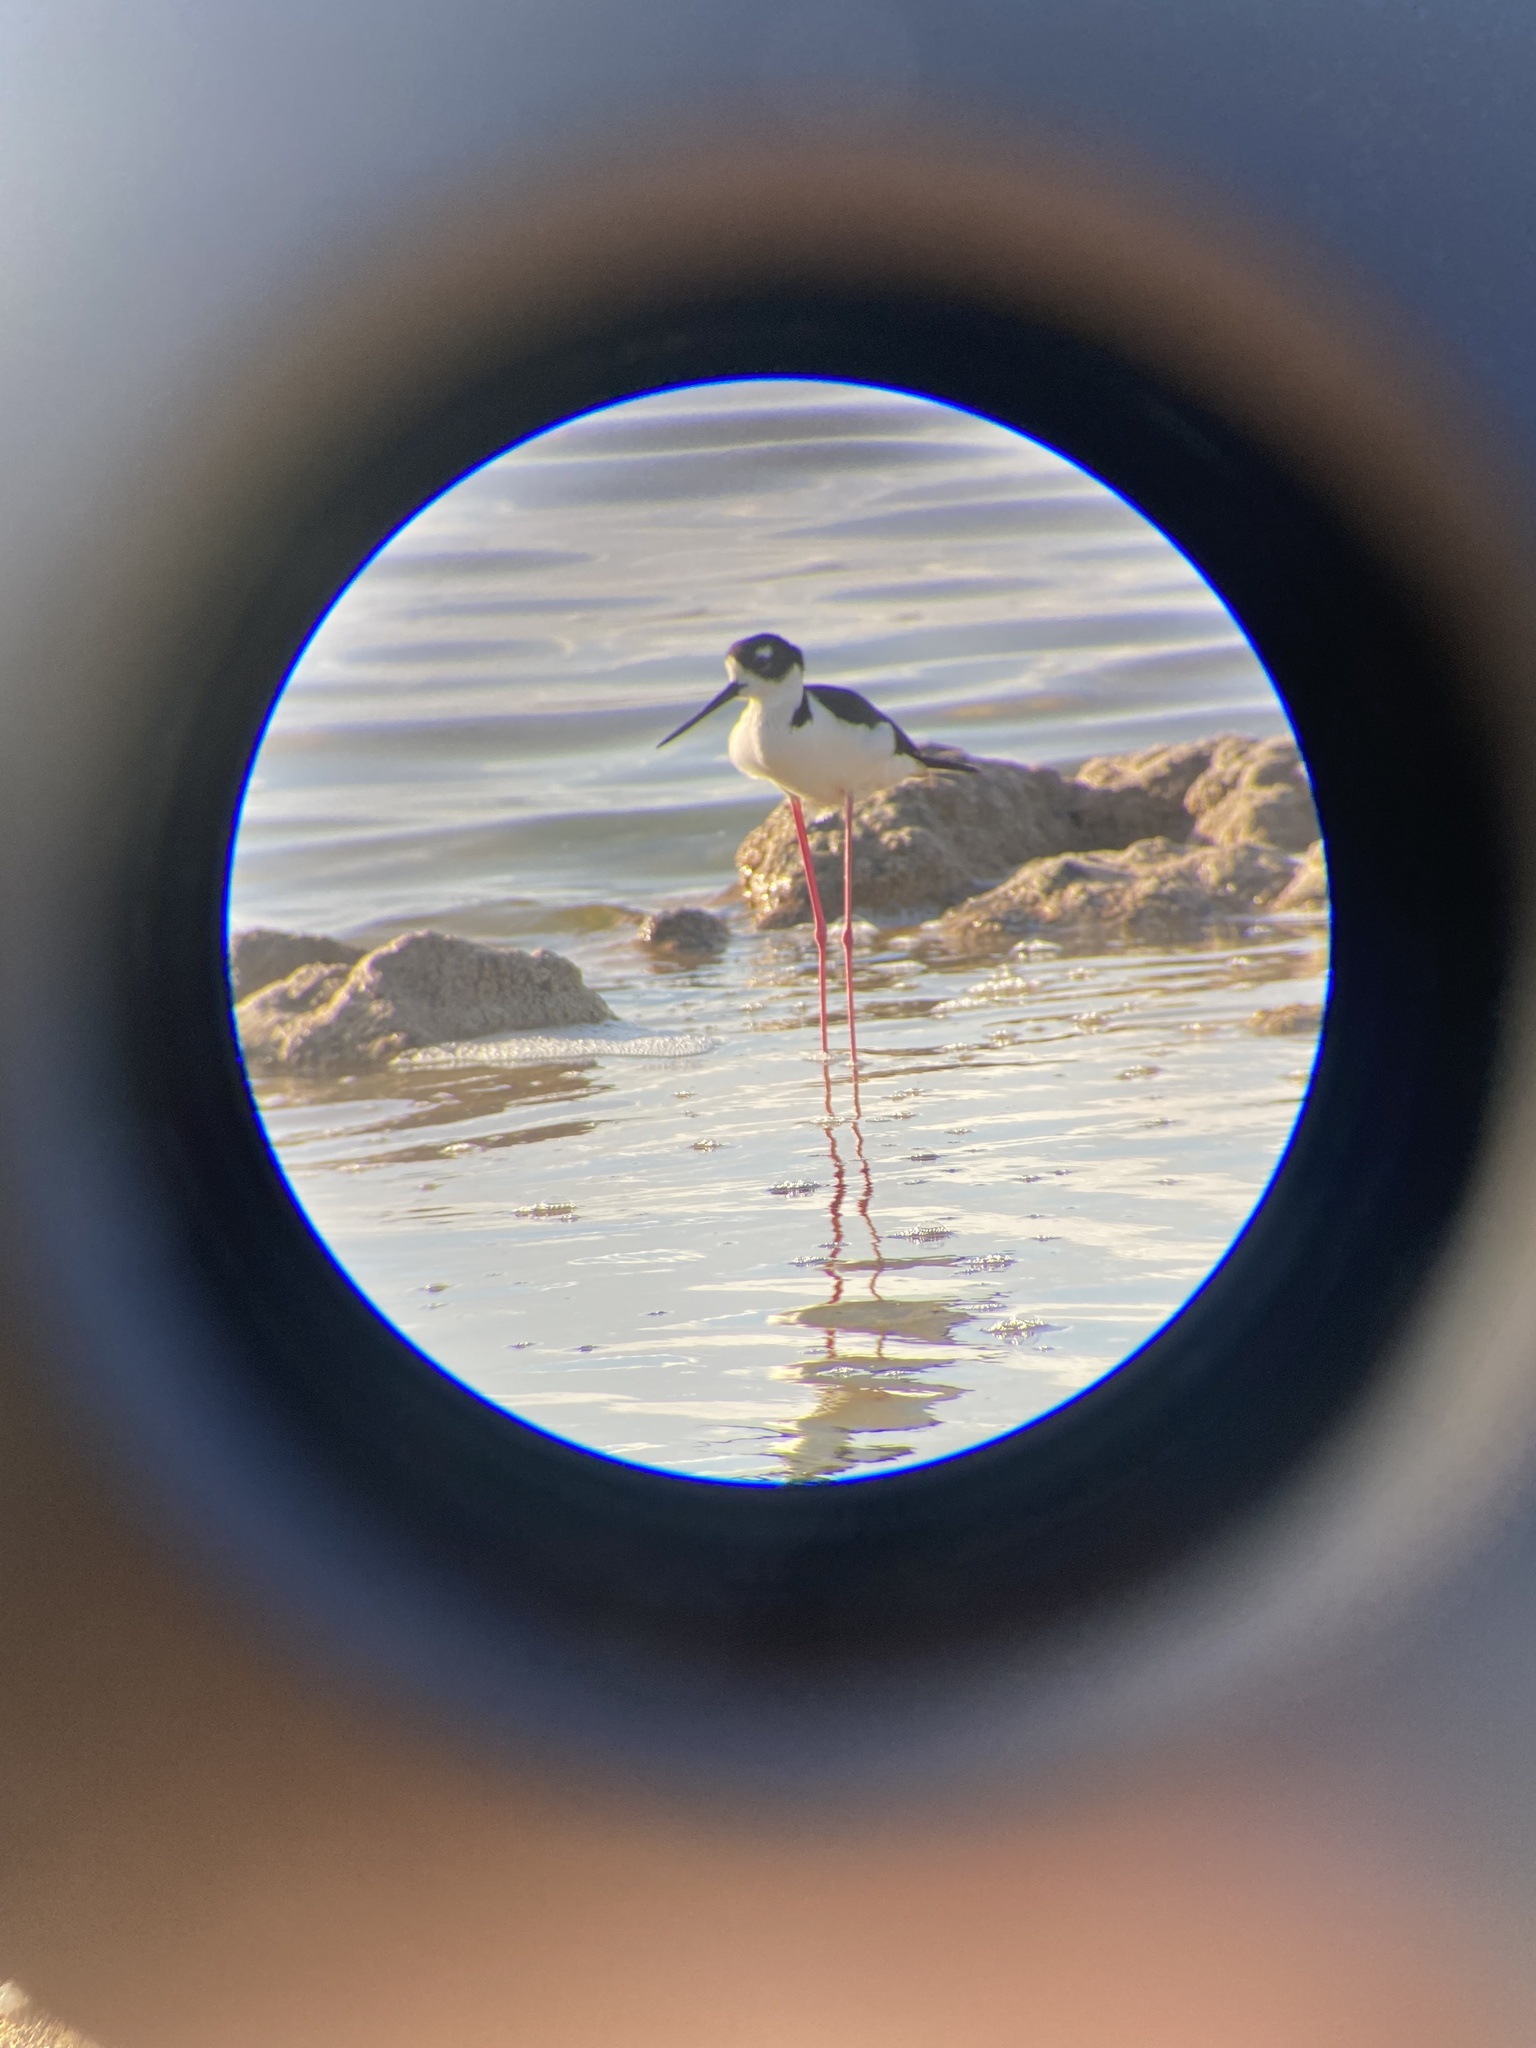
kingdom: Animalia
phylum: Chordata
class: Aves
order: Charadriiformes
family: Recurvirostridae
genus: Himantopus
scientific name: Himantopus mexicanus
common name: Black-necked stilt
